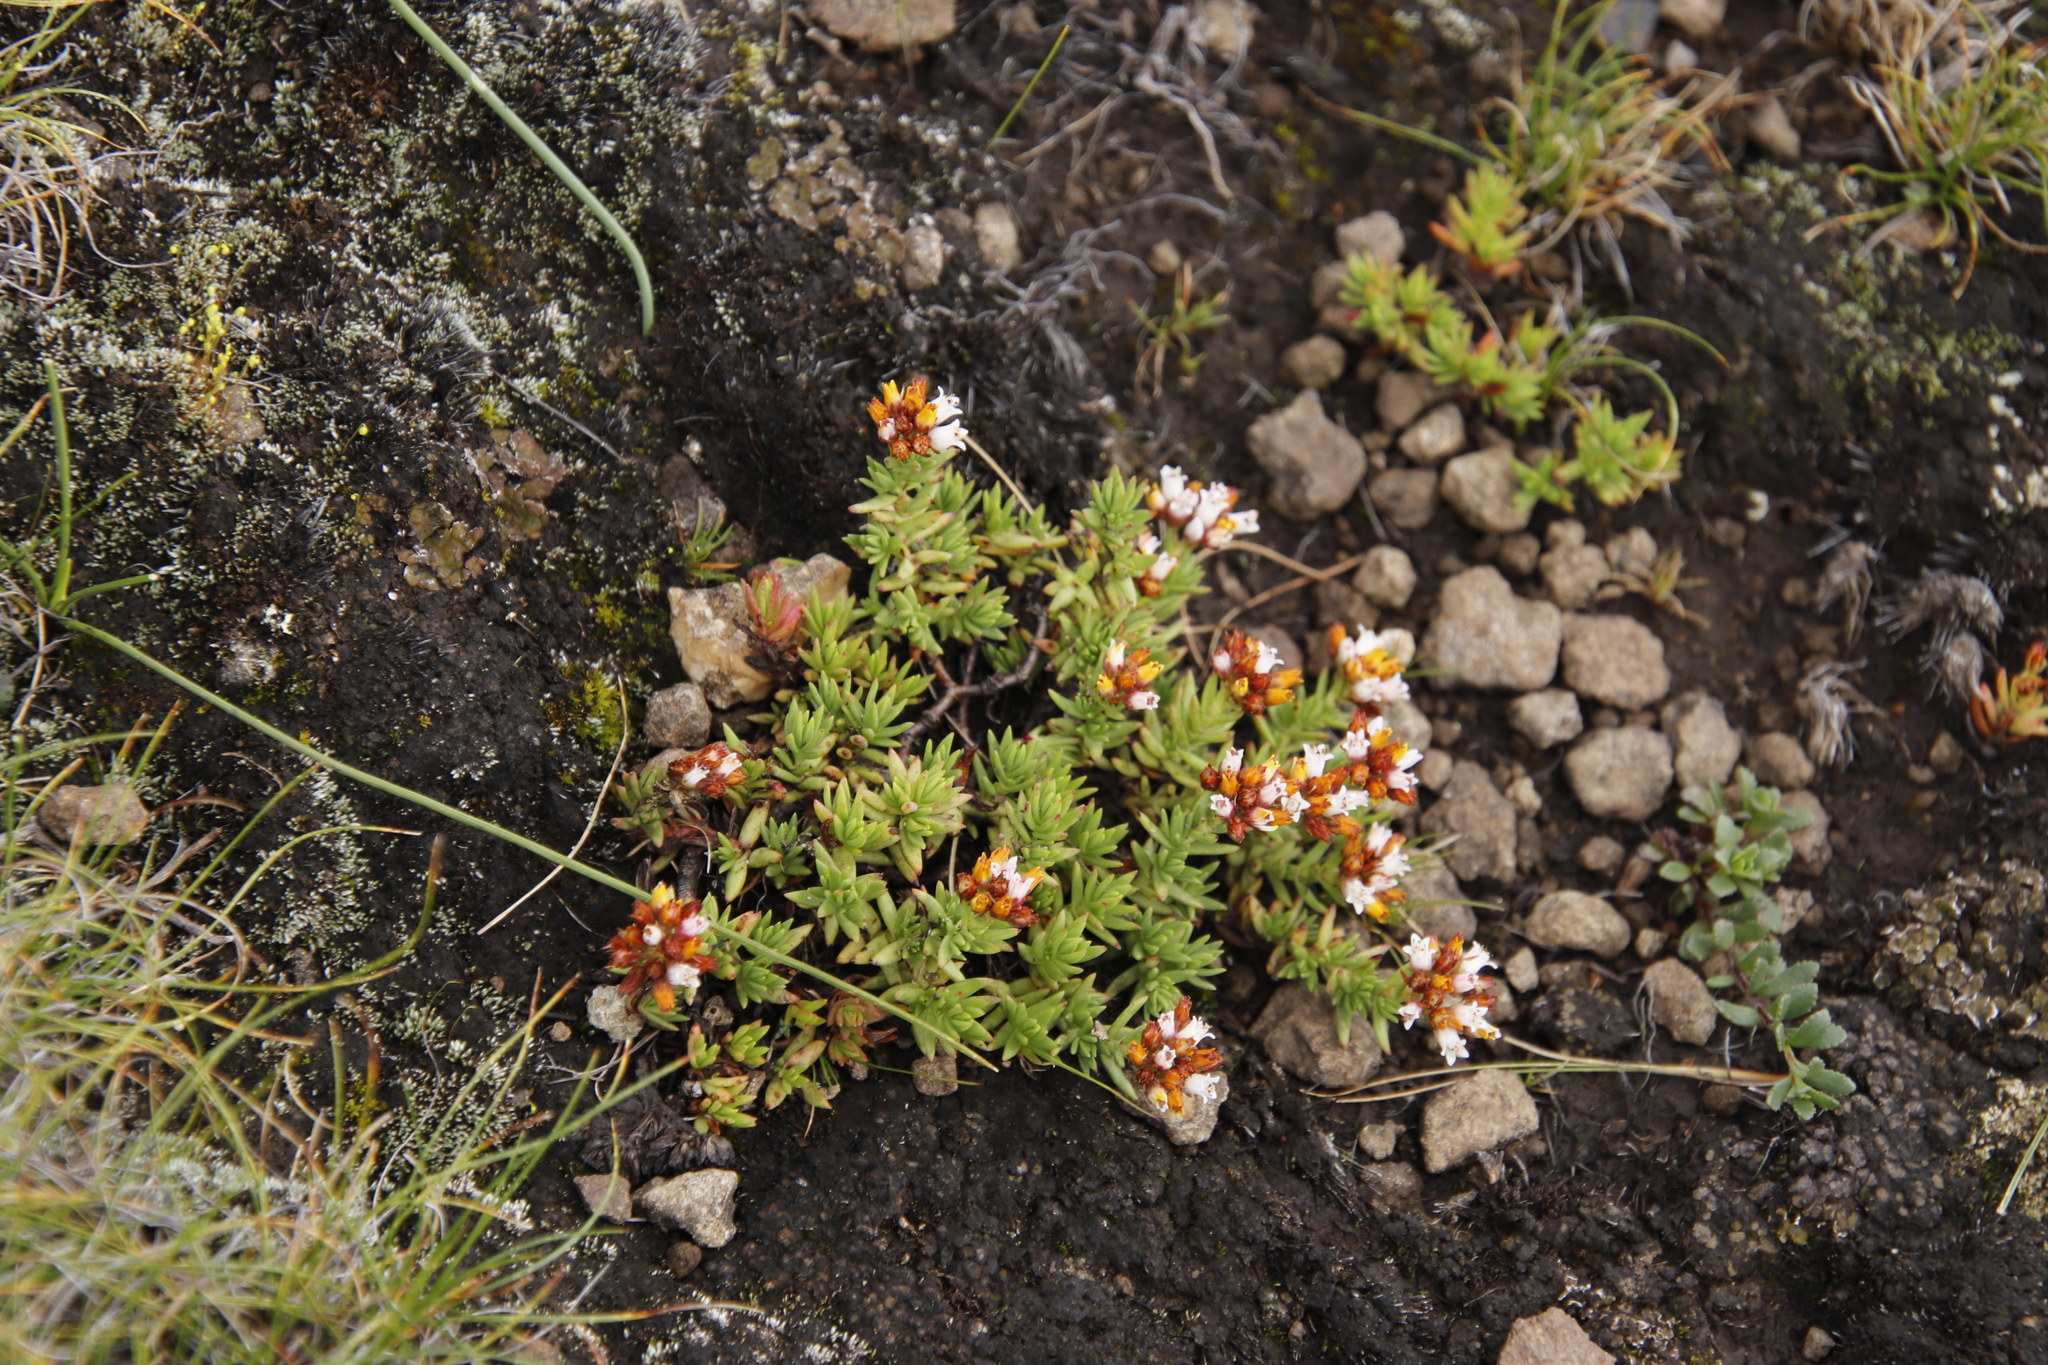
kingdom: Plantae
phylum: Tracheophyta
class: Magnoliopsida
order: Saxifragales
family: Crassulaceae
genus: Crassula
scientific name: Crassula dependens
